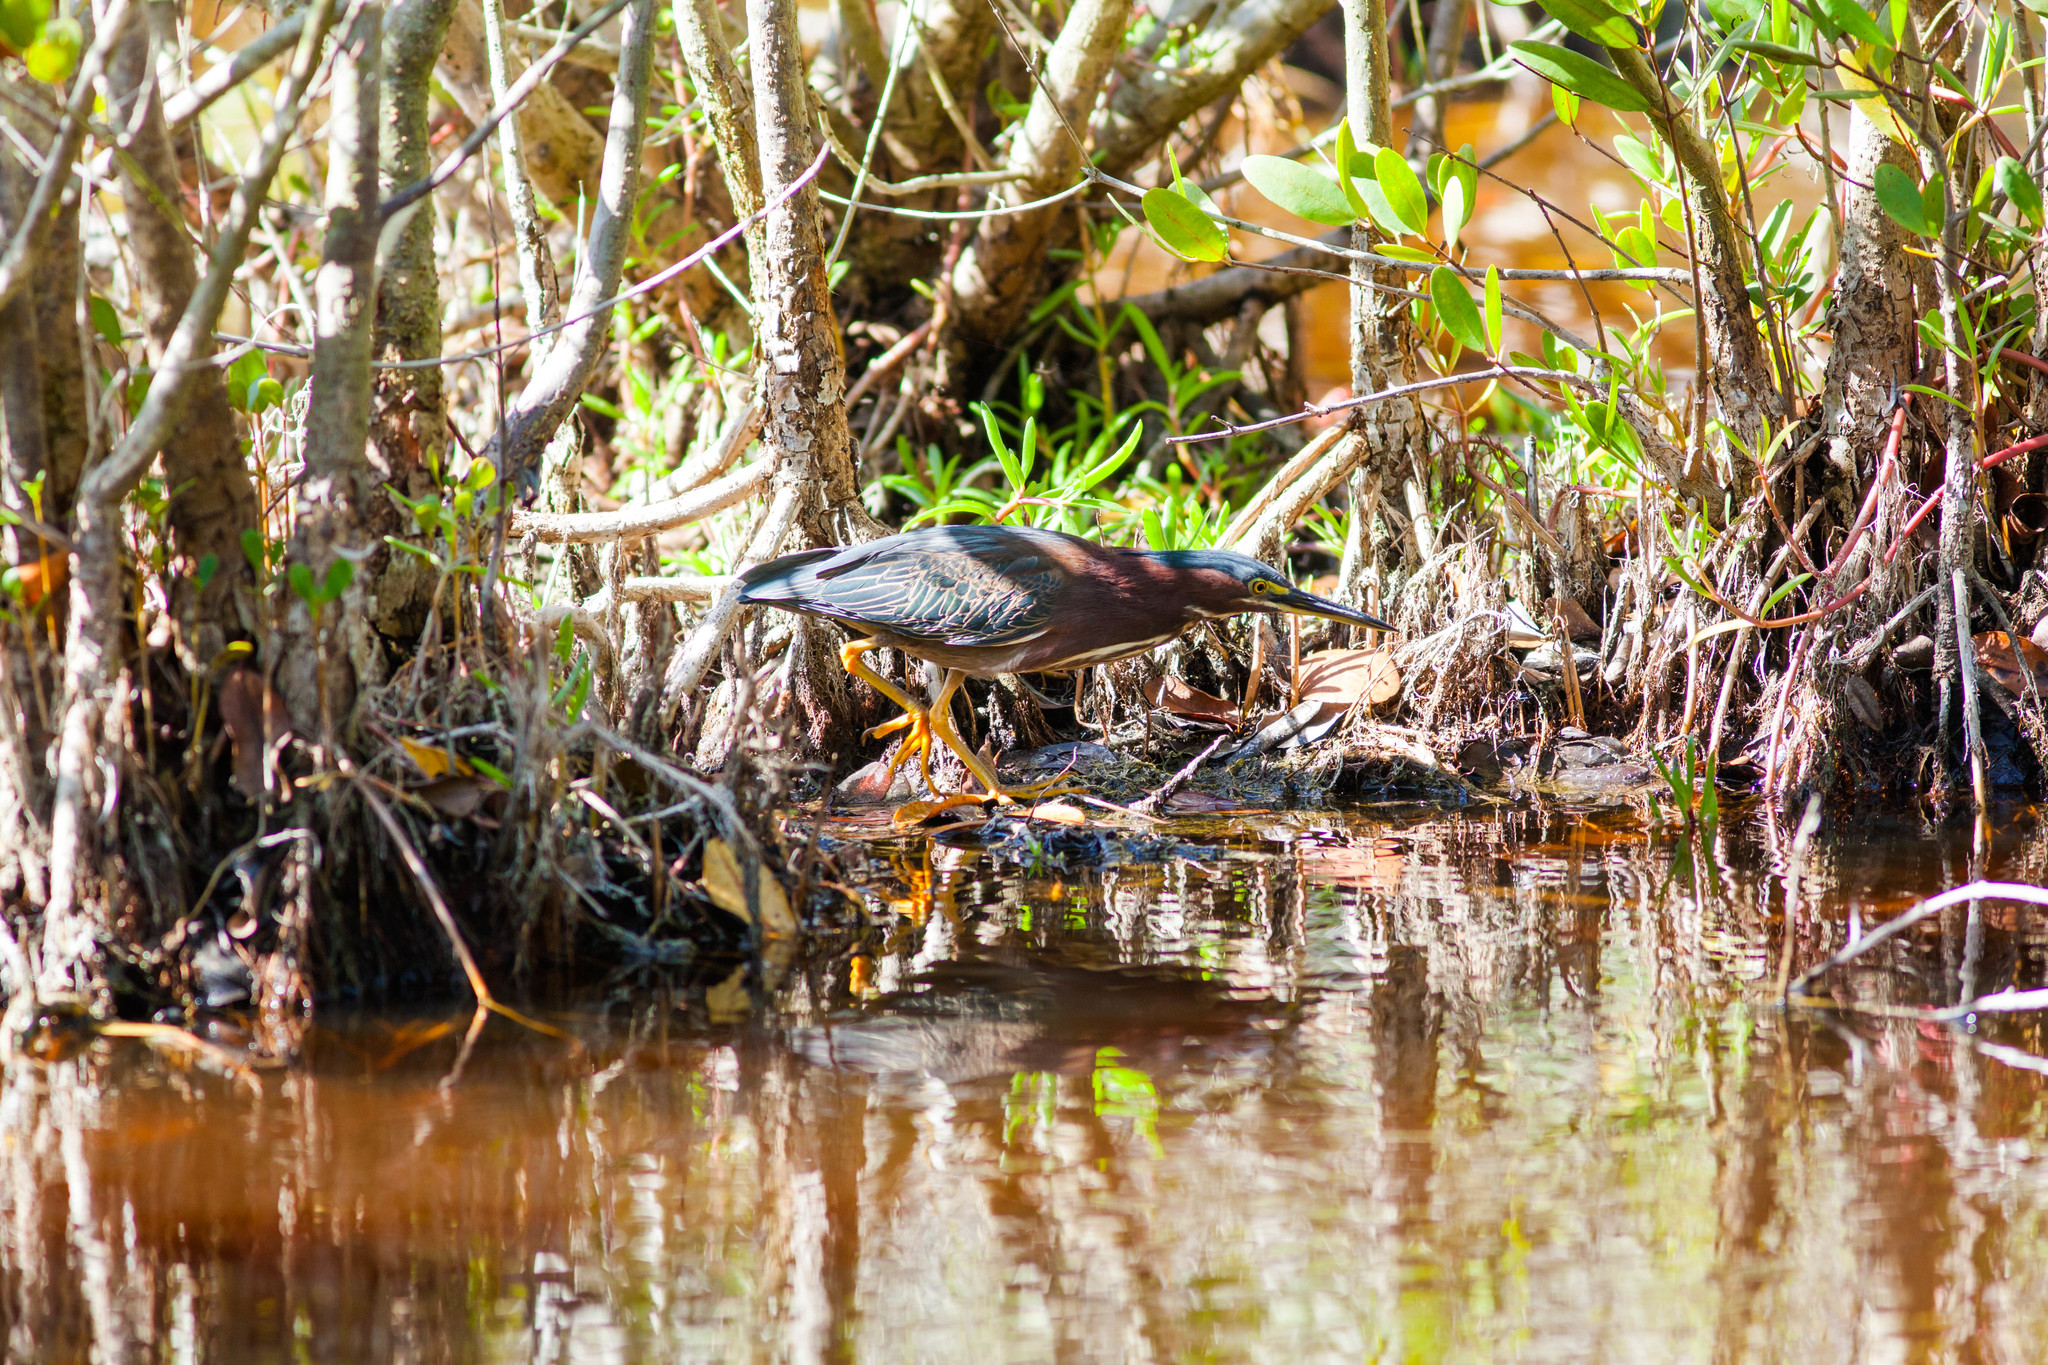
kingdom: Animalia
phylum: Chordata
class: Aves
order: Pelecaniformes
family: Ardeidae
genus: Butorides
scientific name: Butorides virescens
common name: Green heron
